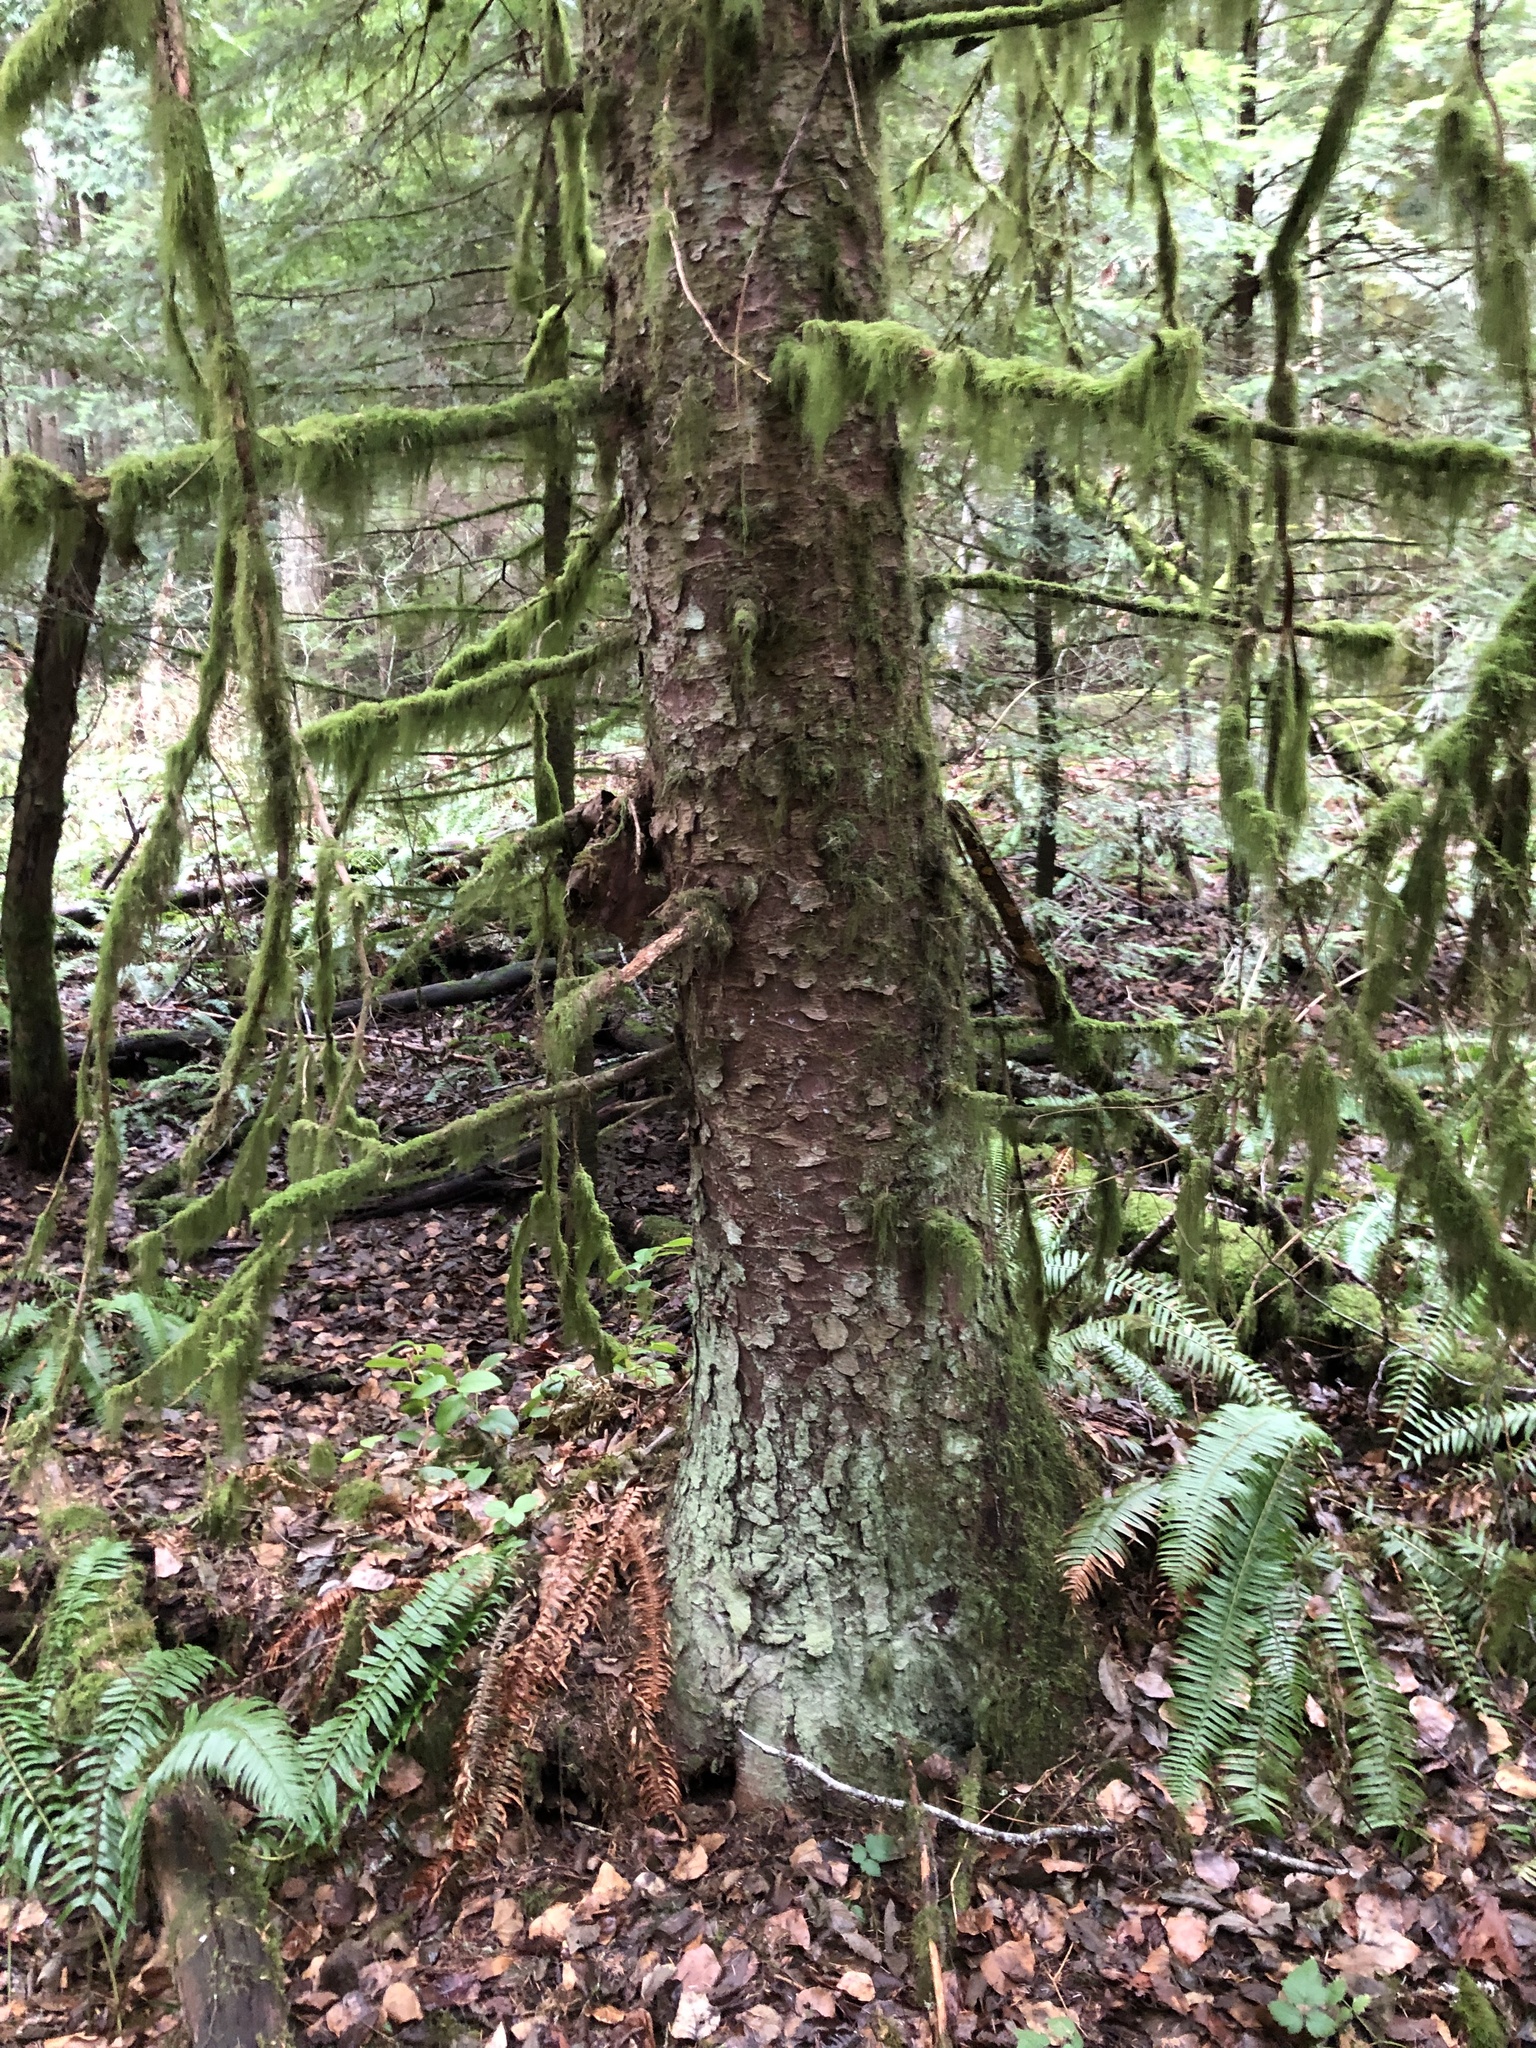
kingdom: Plantae
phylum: Tracheophyta
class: Pinopsida
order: Pinales
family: Pinaceae
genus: Picea
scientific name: Picea sitchensis
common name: Sitka spruce
